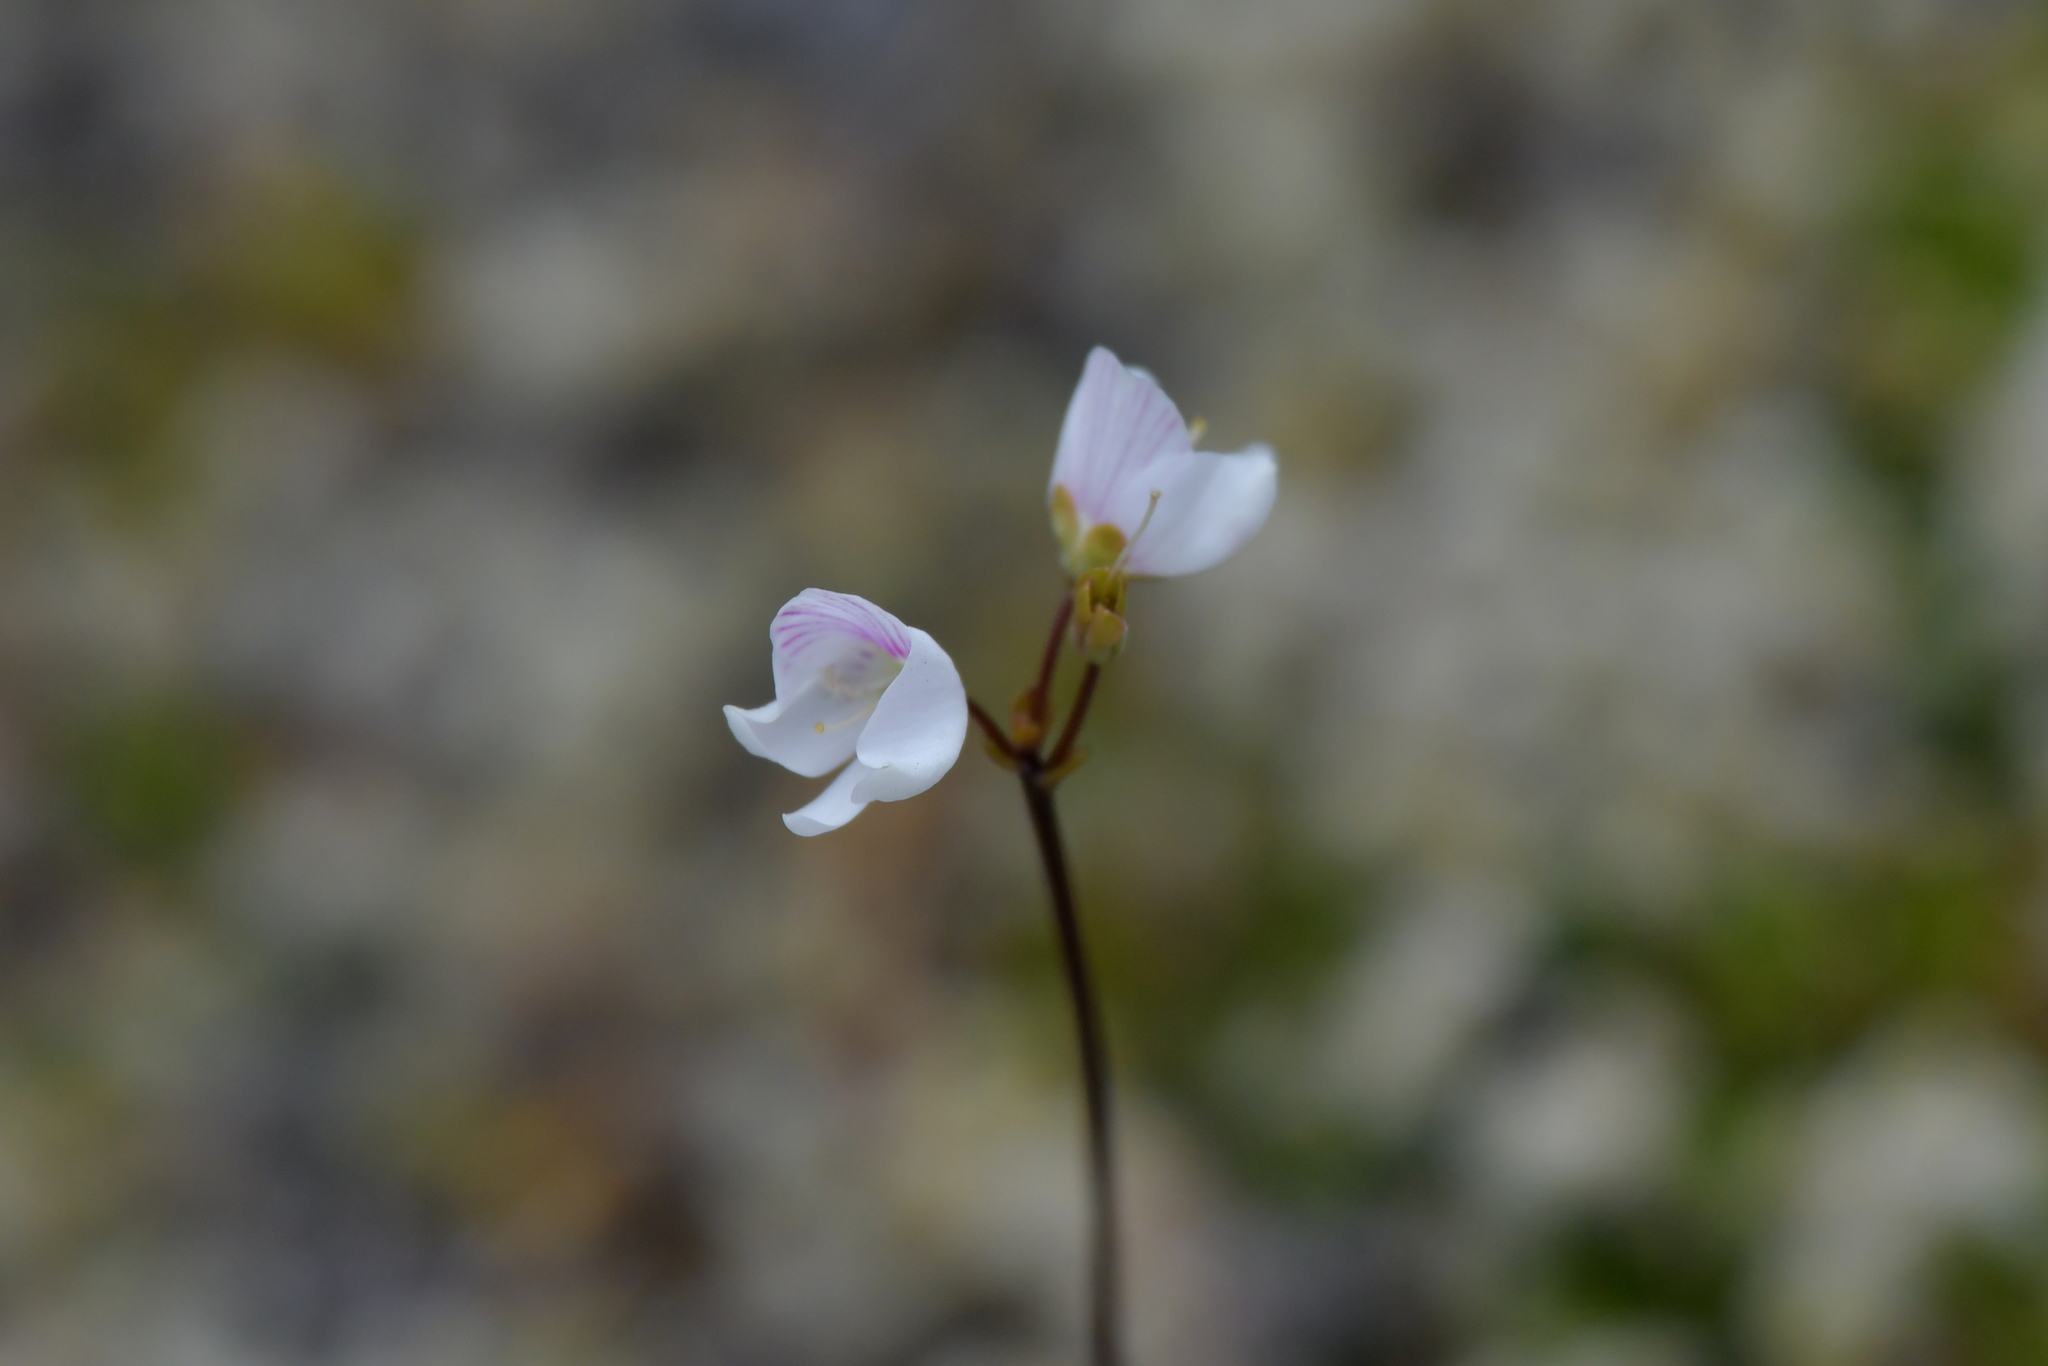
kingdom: Plantae
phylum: Tracheophyta
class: Magnoliopsida
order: Lamiales
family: Plantaginaceae
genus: Veronica
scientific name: Veronica decora
